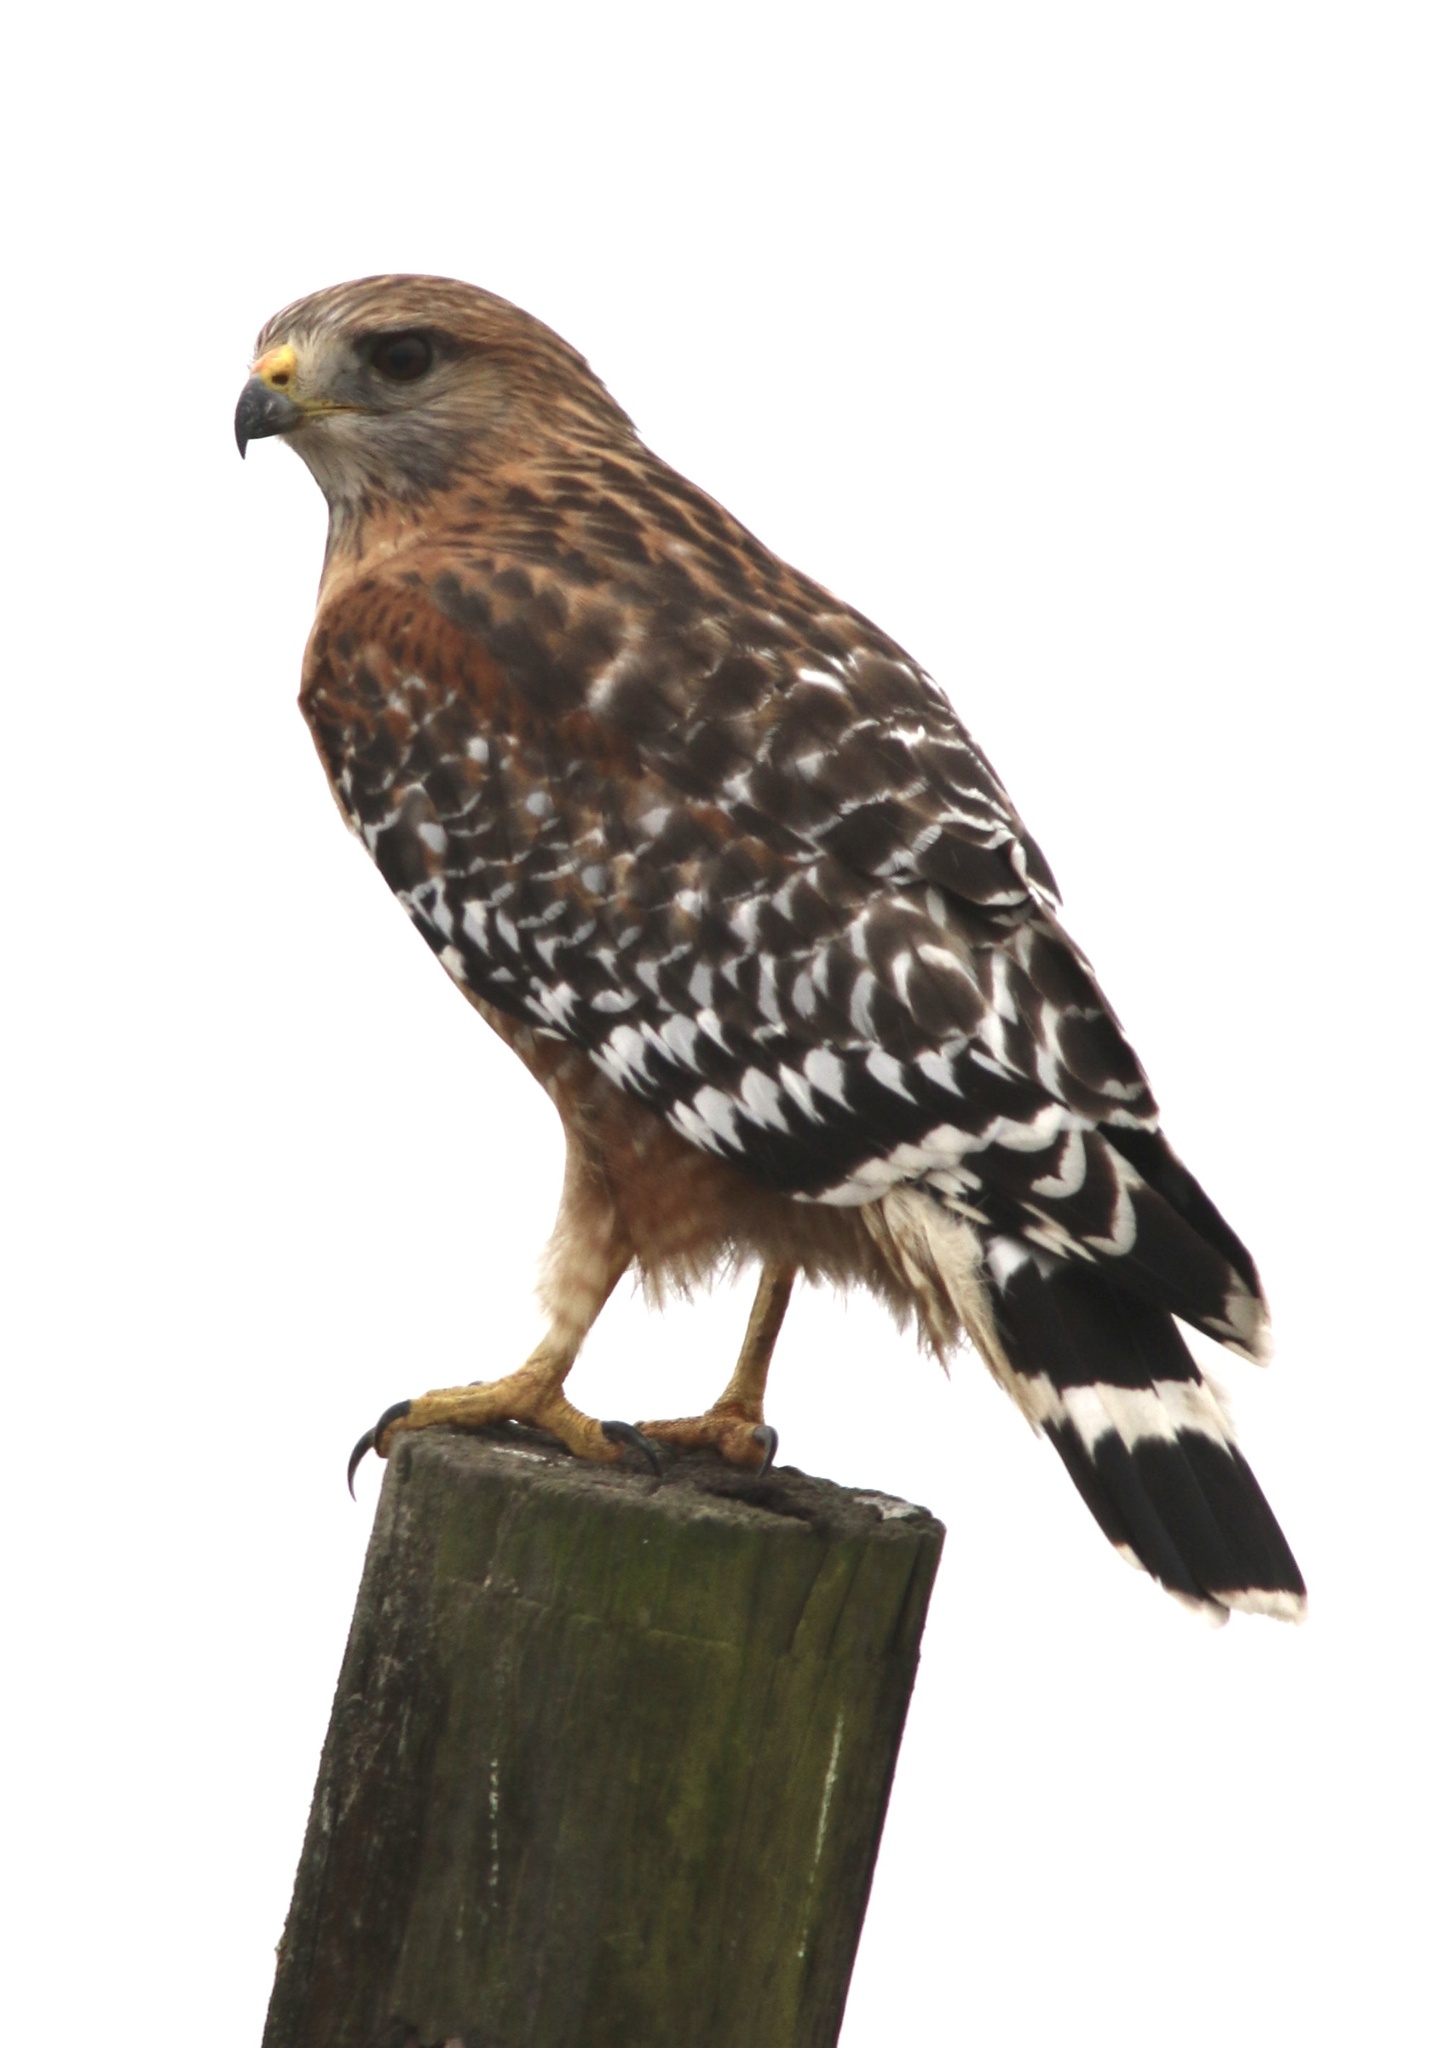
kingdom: Animalia
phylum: Chordata
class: Aves
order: Accipitriformes
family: Accipitridae
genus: Buteo
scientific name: Buteo lineatus
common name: Red-shouldered hawk
